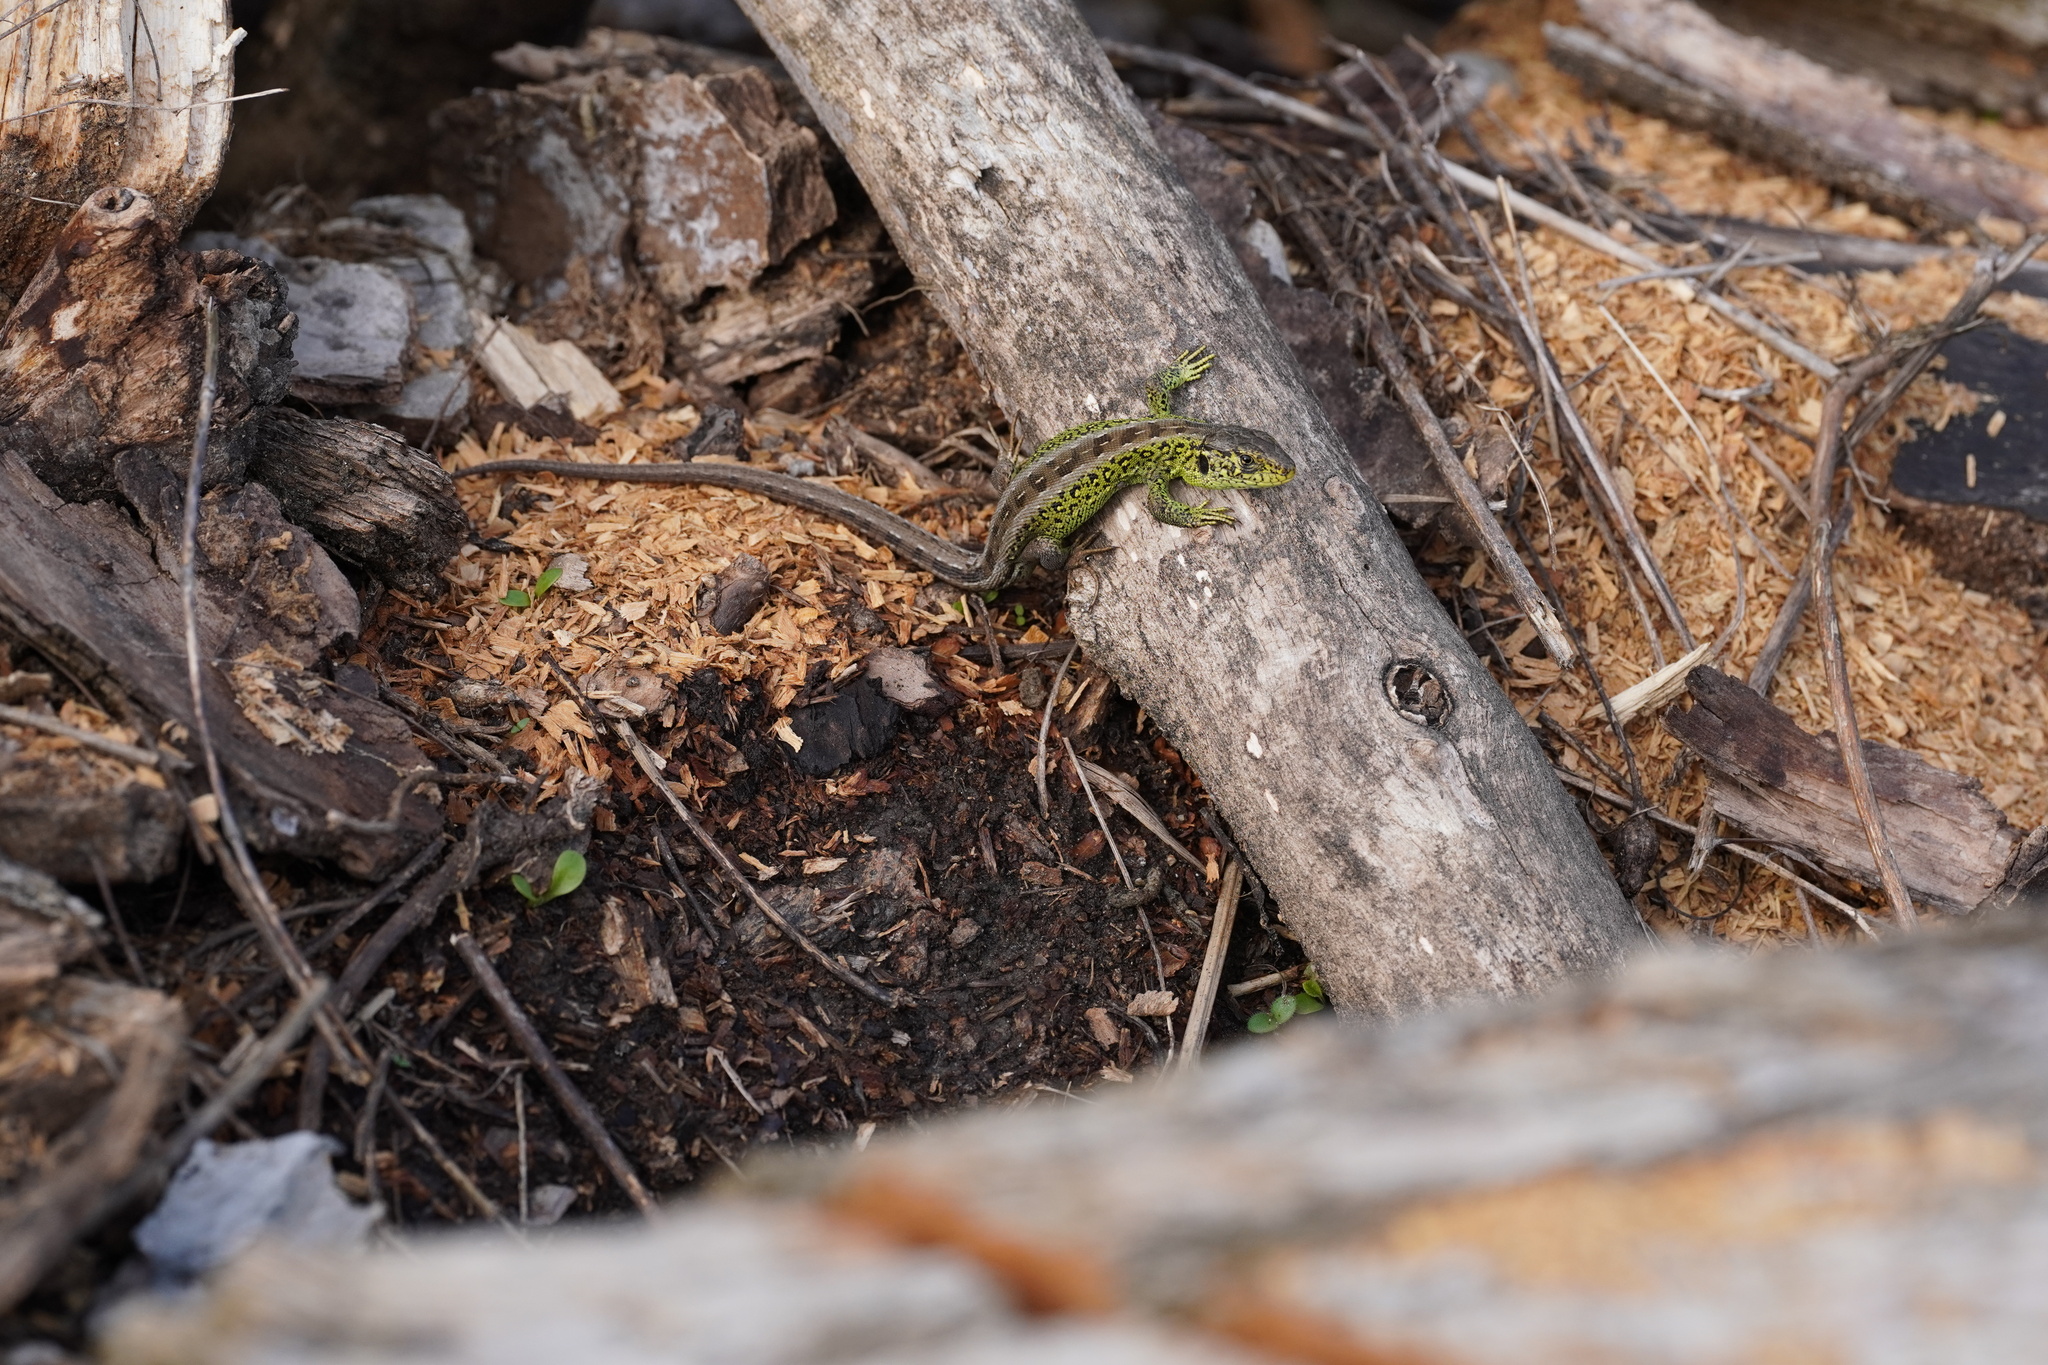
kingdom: Animalia
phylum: Chordata
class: Squamata
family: Lacertidae
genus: Lacerta
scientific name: Lacerta agilis
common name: Sand lizard
